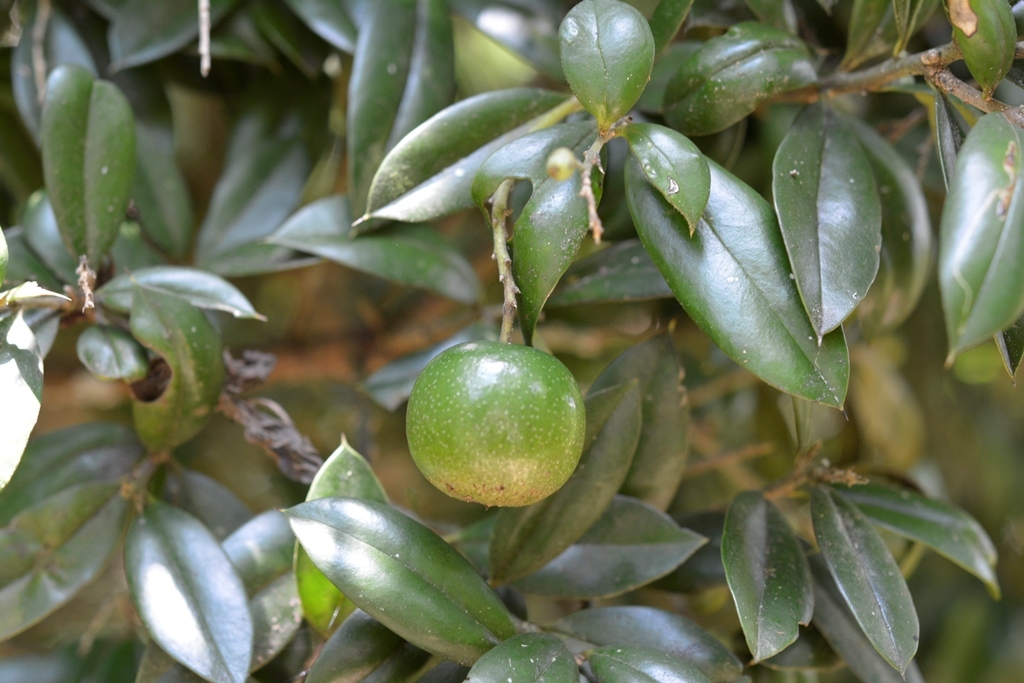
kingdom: Plantae
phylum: Tracheophyta
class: Magnoliopsida
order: Ericales
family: Primulaceae
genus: Bonellia
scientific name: Bonellia macrocarpa
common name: Primrose
